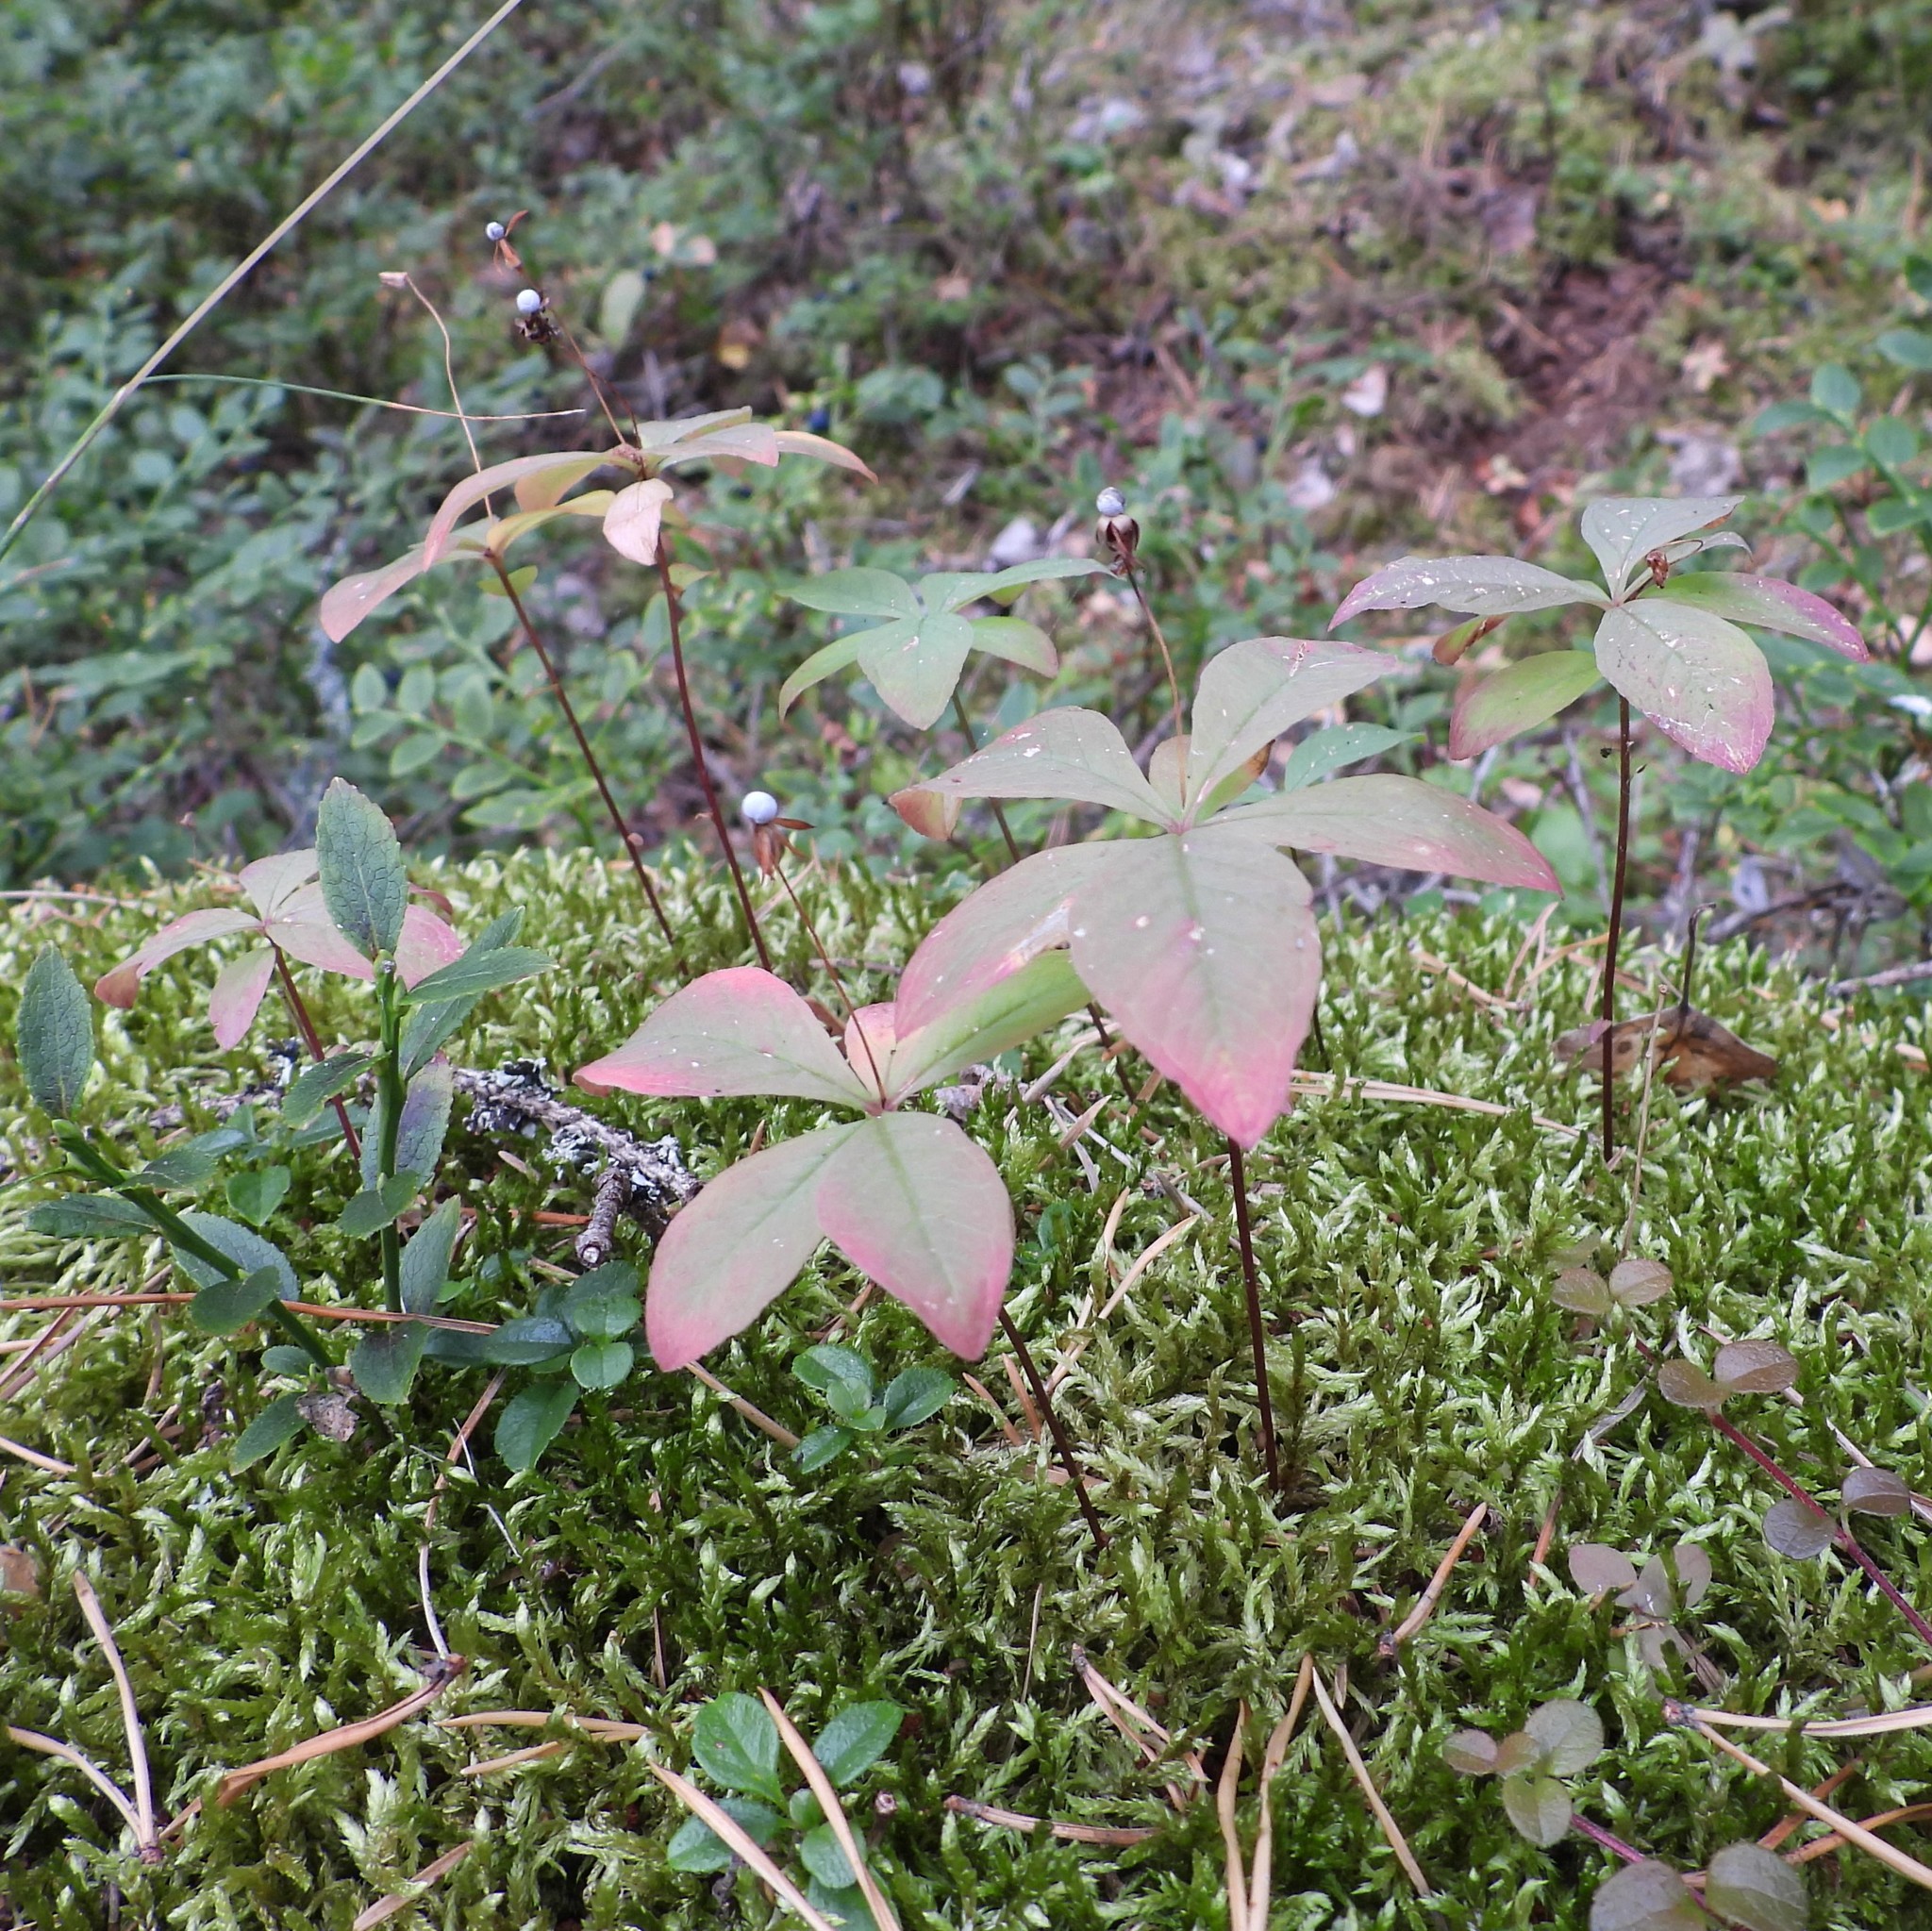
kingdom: Plantae
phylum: Tracheophyta
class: Magnoliopsida
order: Ericales
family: Primulaceae
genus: Lysimachia
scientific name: Lysimachia europaea
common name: Arctic starflower
